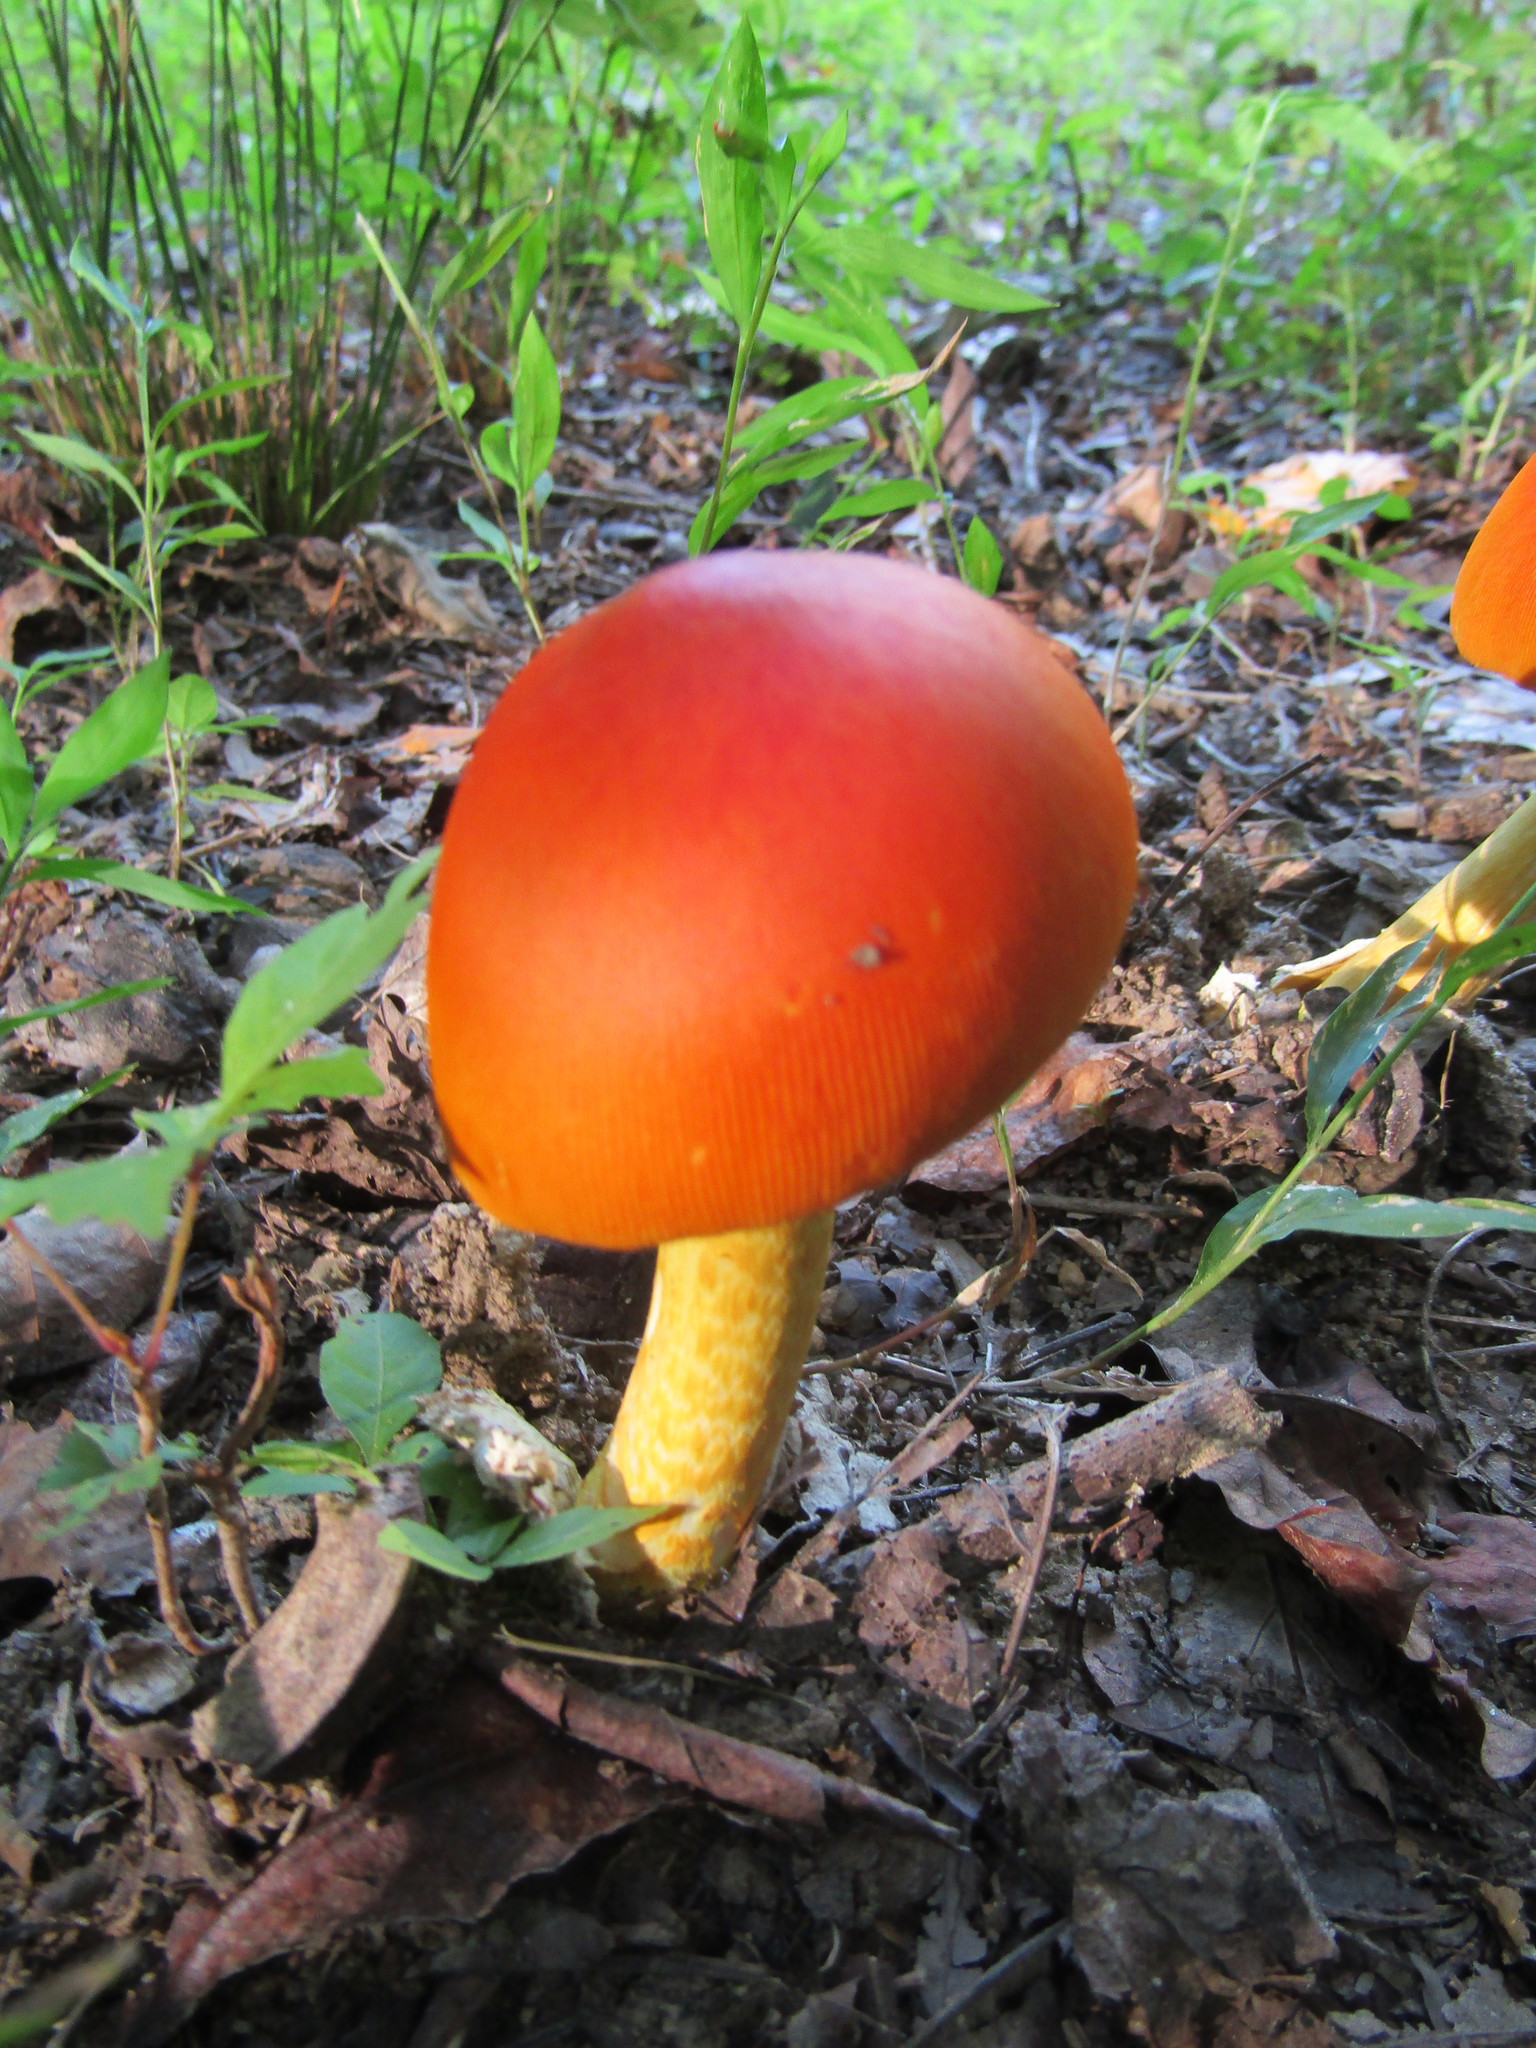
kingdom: Fungi
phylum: Basidiomycota
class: Agaricomycetes
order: Agaricales
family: Amanitaceae
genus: Amanita
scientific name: Amanita jacksonii
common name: Jackson's slender caesar
